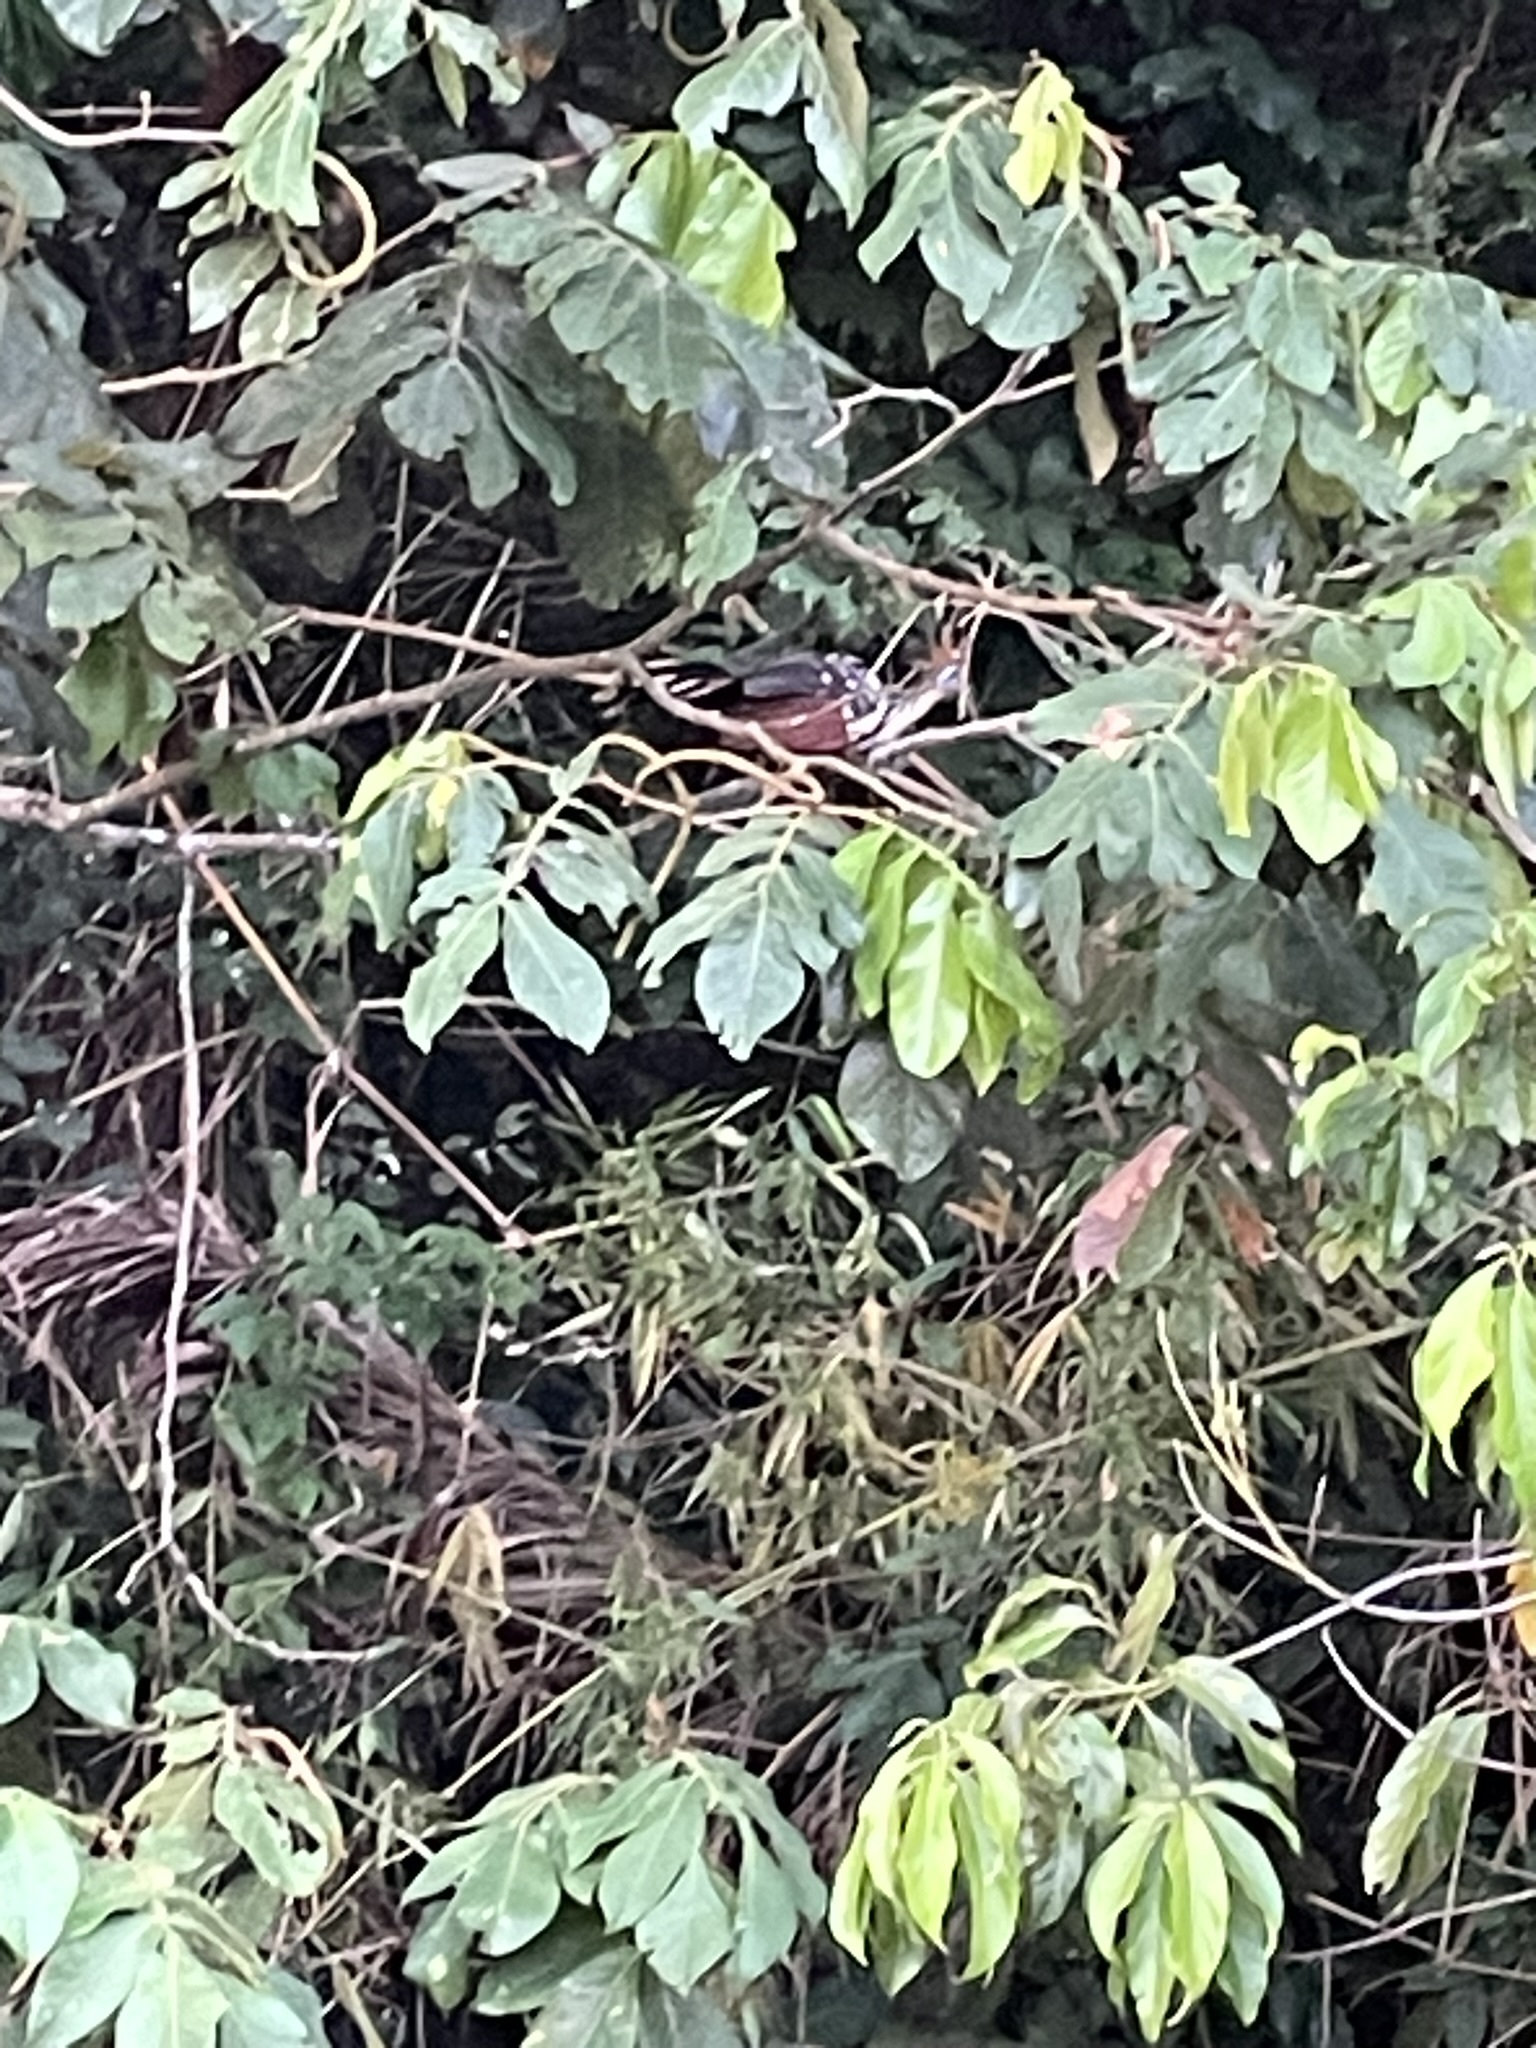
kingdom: Animalia
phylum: Chordata
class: Aves
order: Opisthocomiformes
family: Opisthocomidae
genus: Opisthocomus
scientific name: Opisthocomus hoazin
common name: Hoatzin
